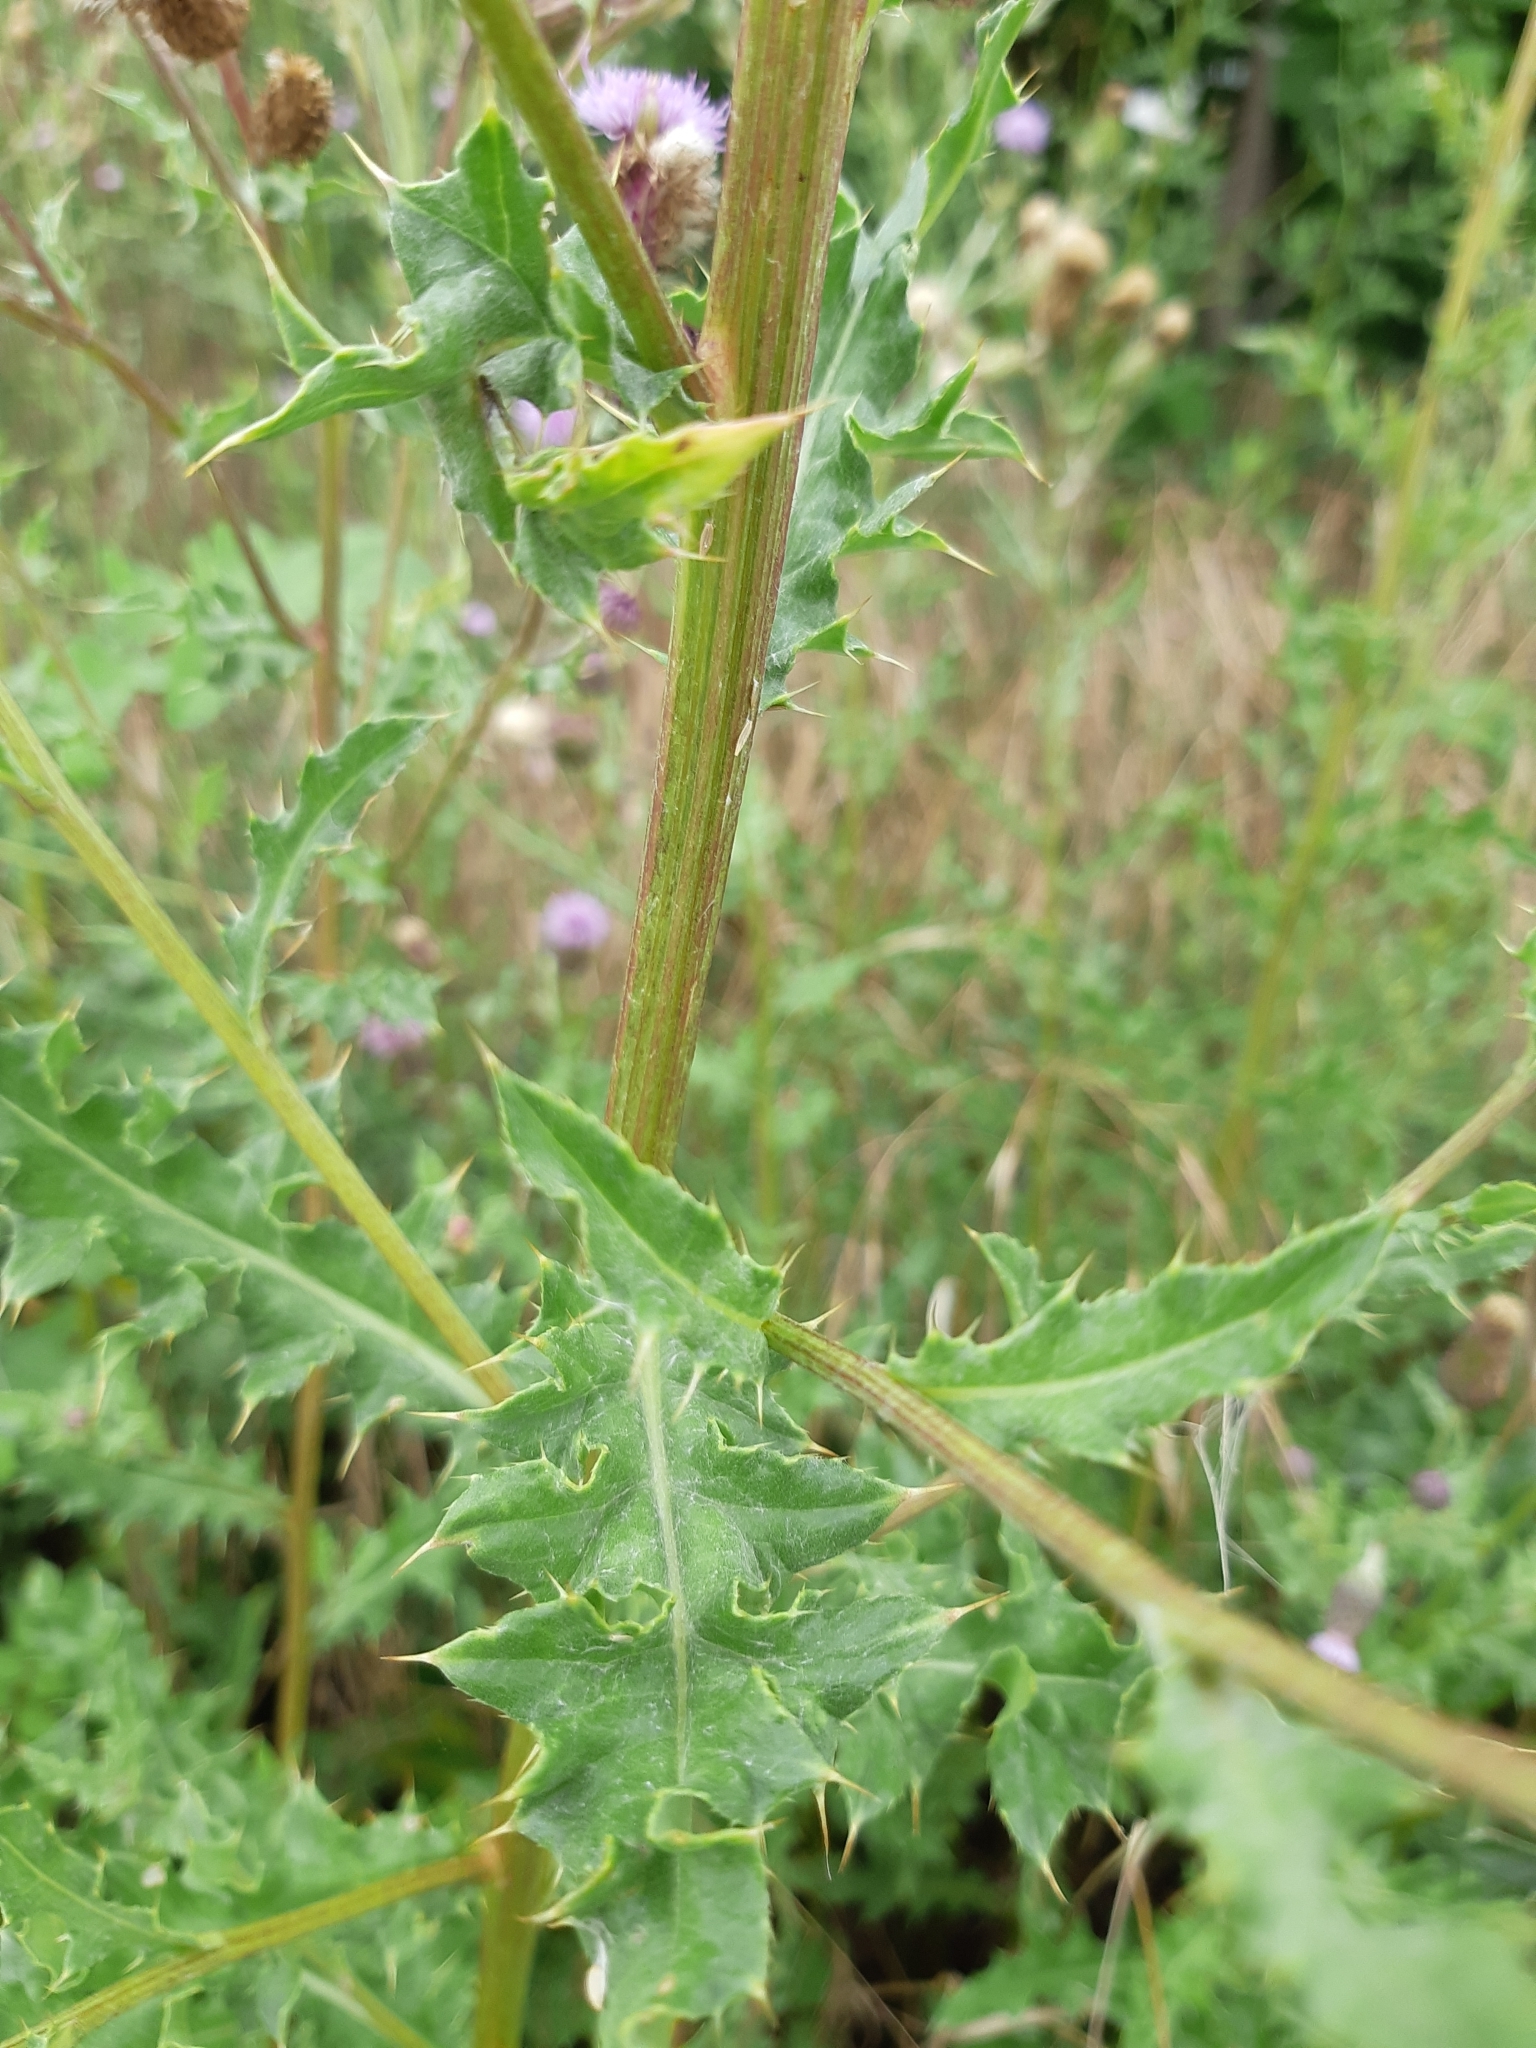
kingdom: Plantae
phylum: Tracheophyta
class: Magnoliopsida
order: Asterales
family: Asteraceae
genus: Cirsium
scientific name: Cirsium arvense
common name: Creeping thistle
